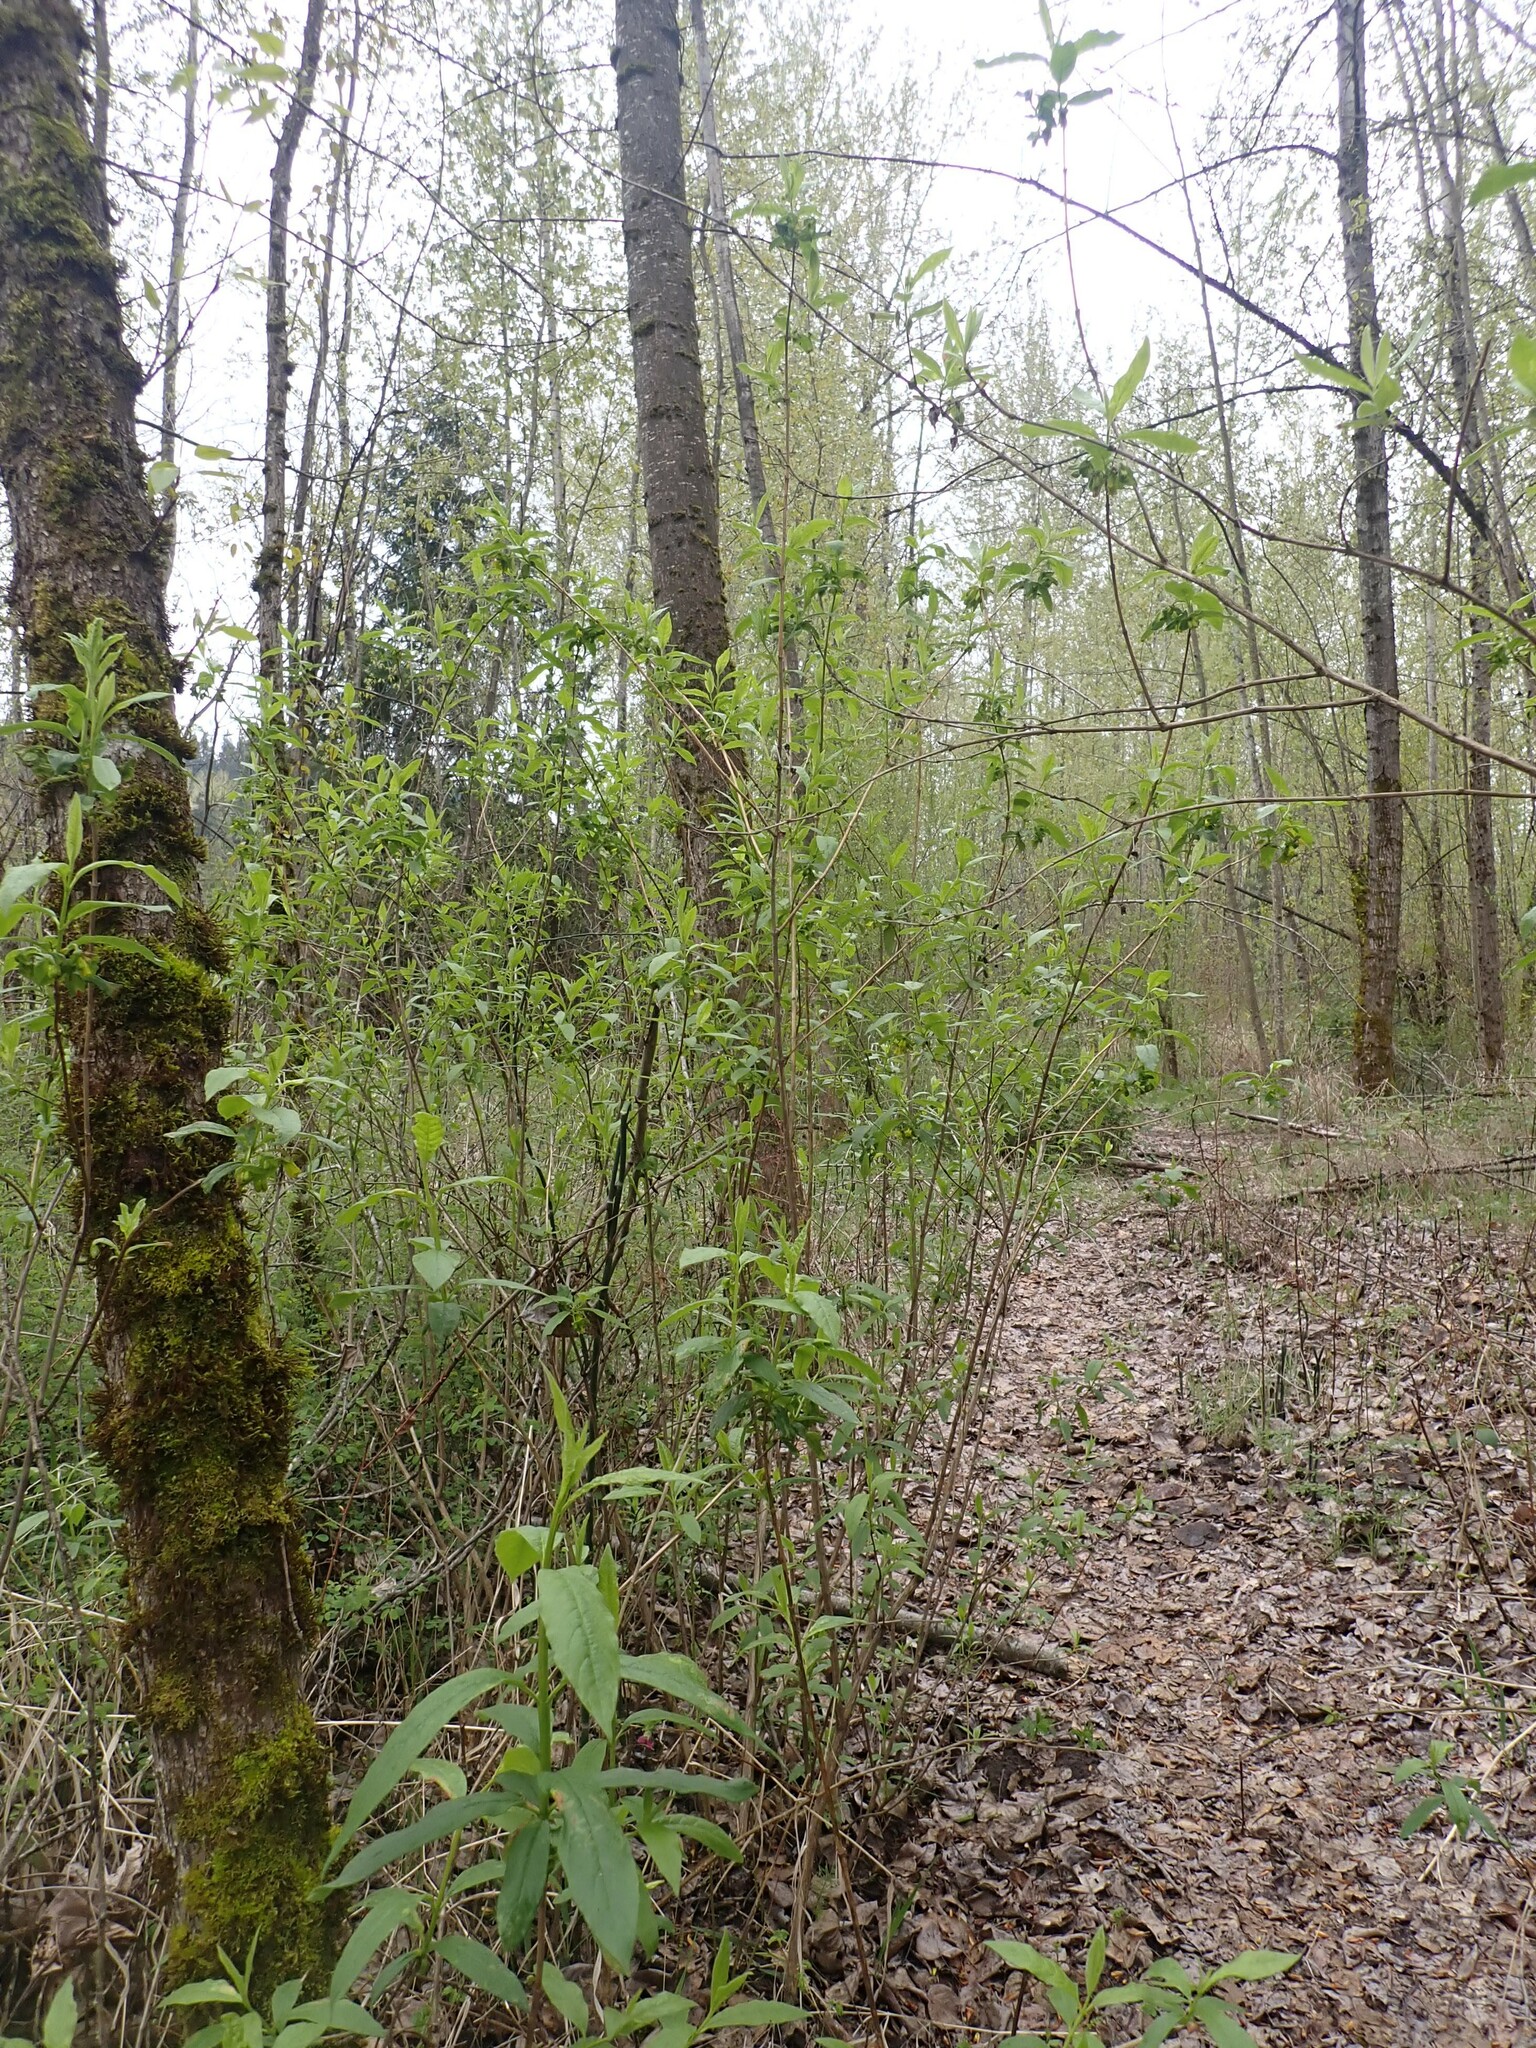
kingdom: Plantae
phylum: Tracheophyta
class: Magnoliopsida
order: Dipsacales
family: Caprifoliaceae
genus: Lonicera
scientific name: Lonicera involucrata
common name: Californian honeysuckle
